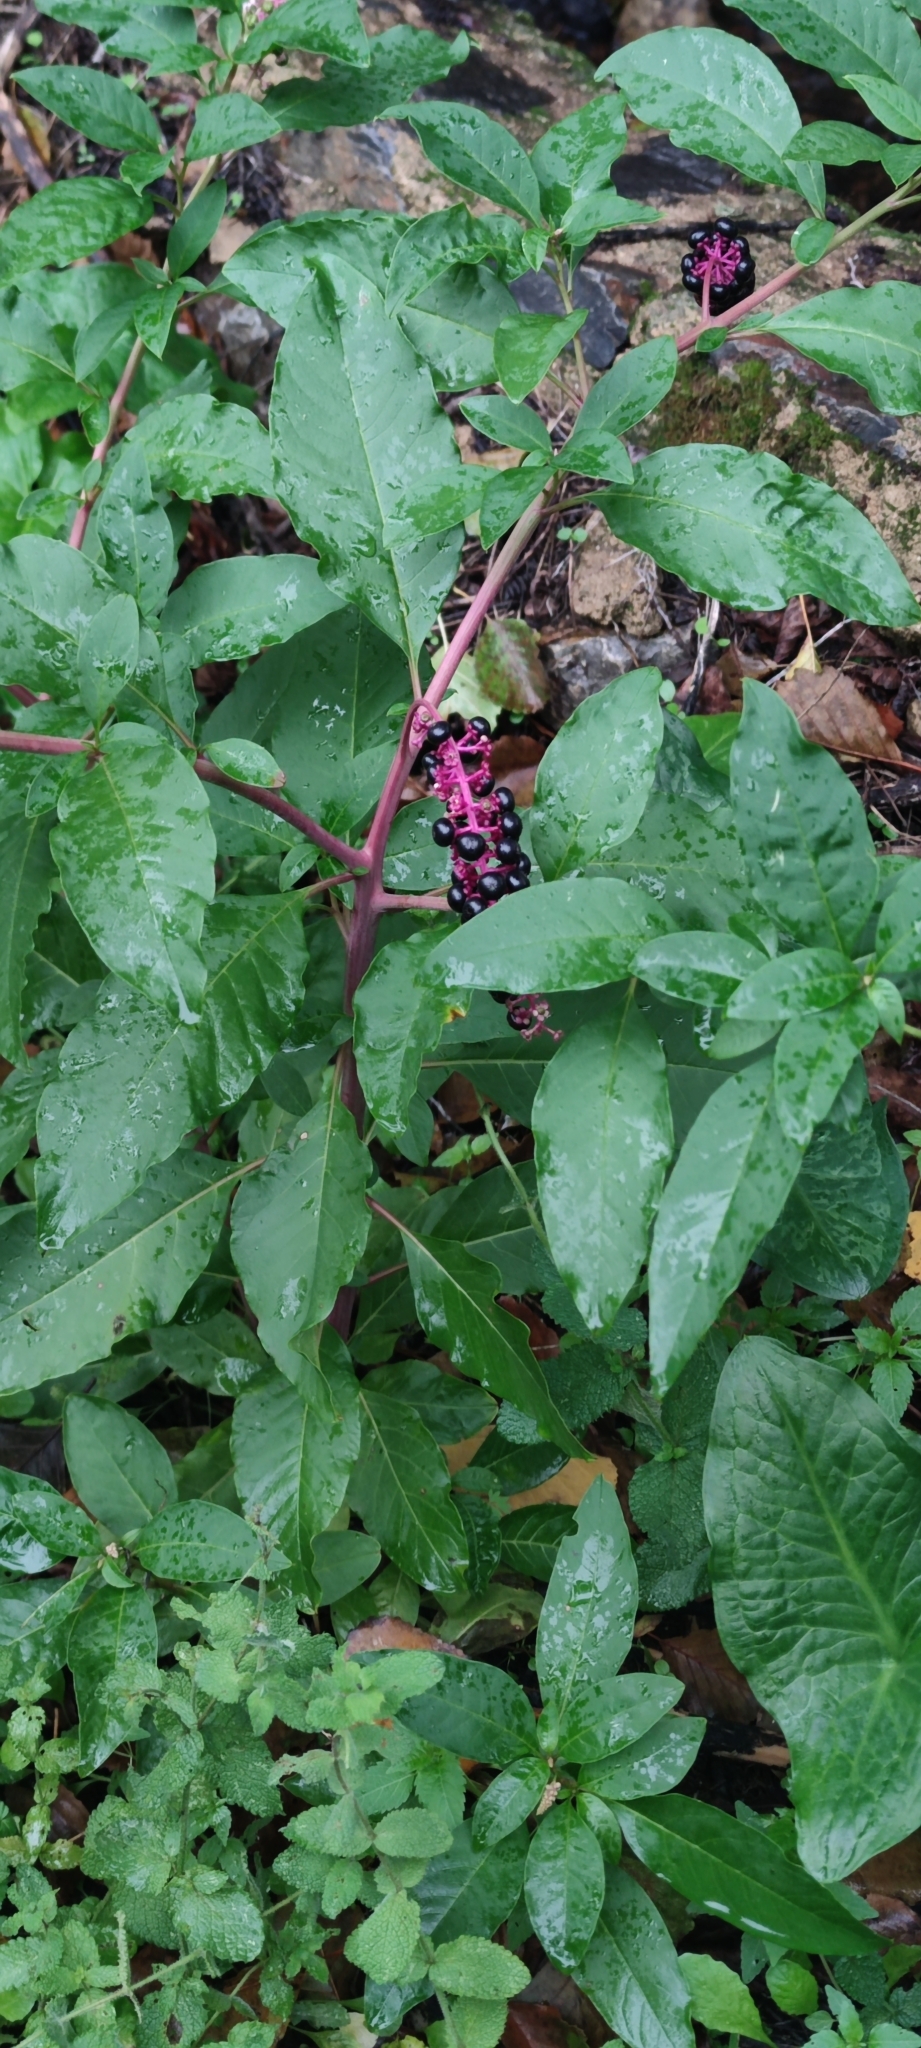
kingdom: Plantae
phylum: Tracheophyta
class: Magnoliopsida
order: Caryophyllales
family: Phytolaccaceae
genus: Phytolacca
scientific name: Phytolacca americana
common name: American pokeweed
